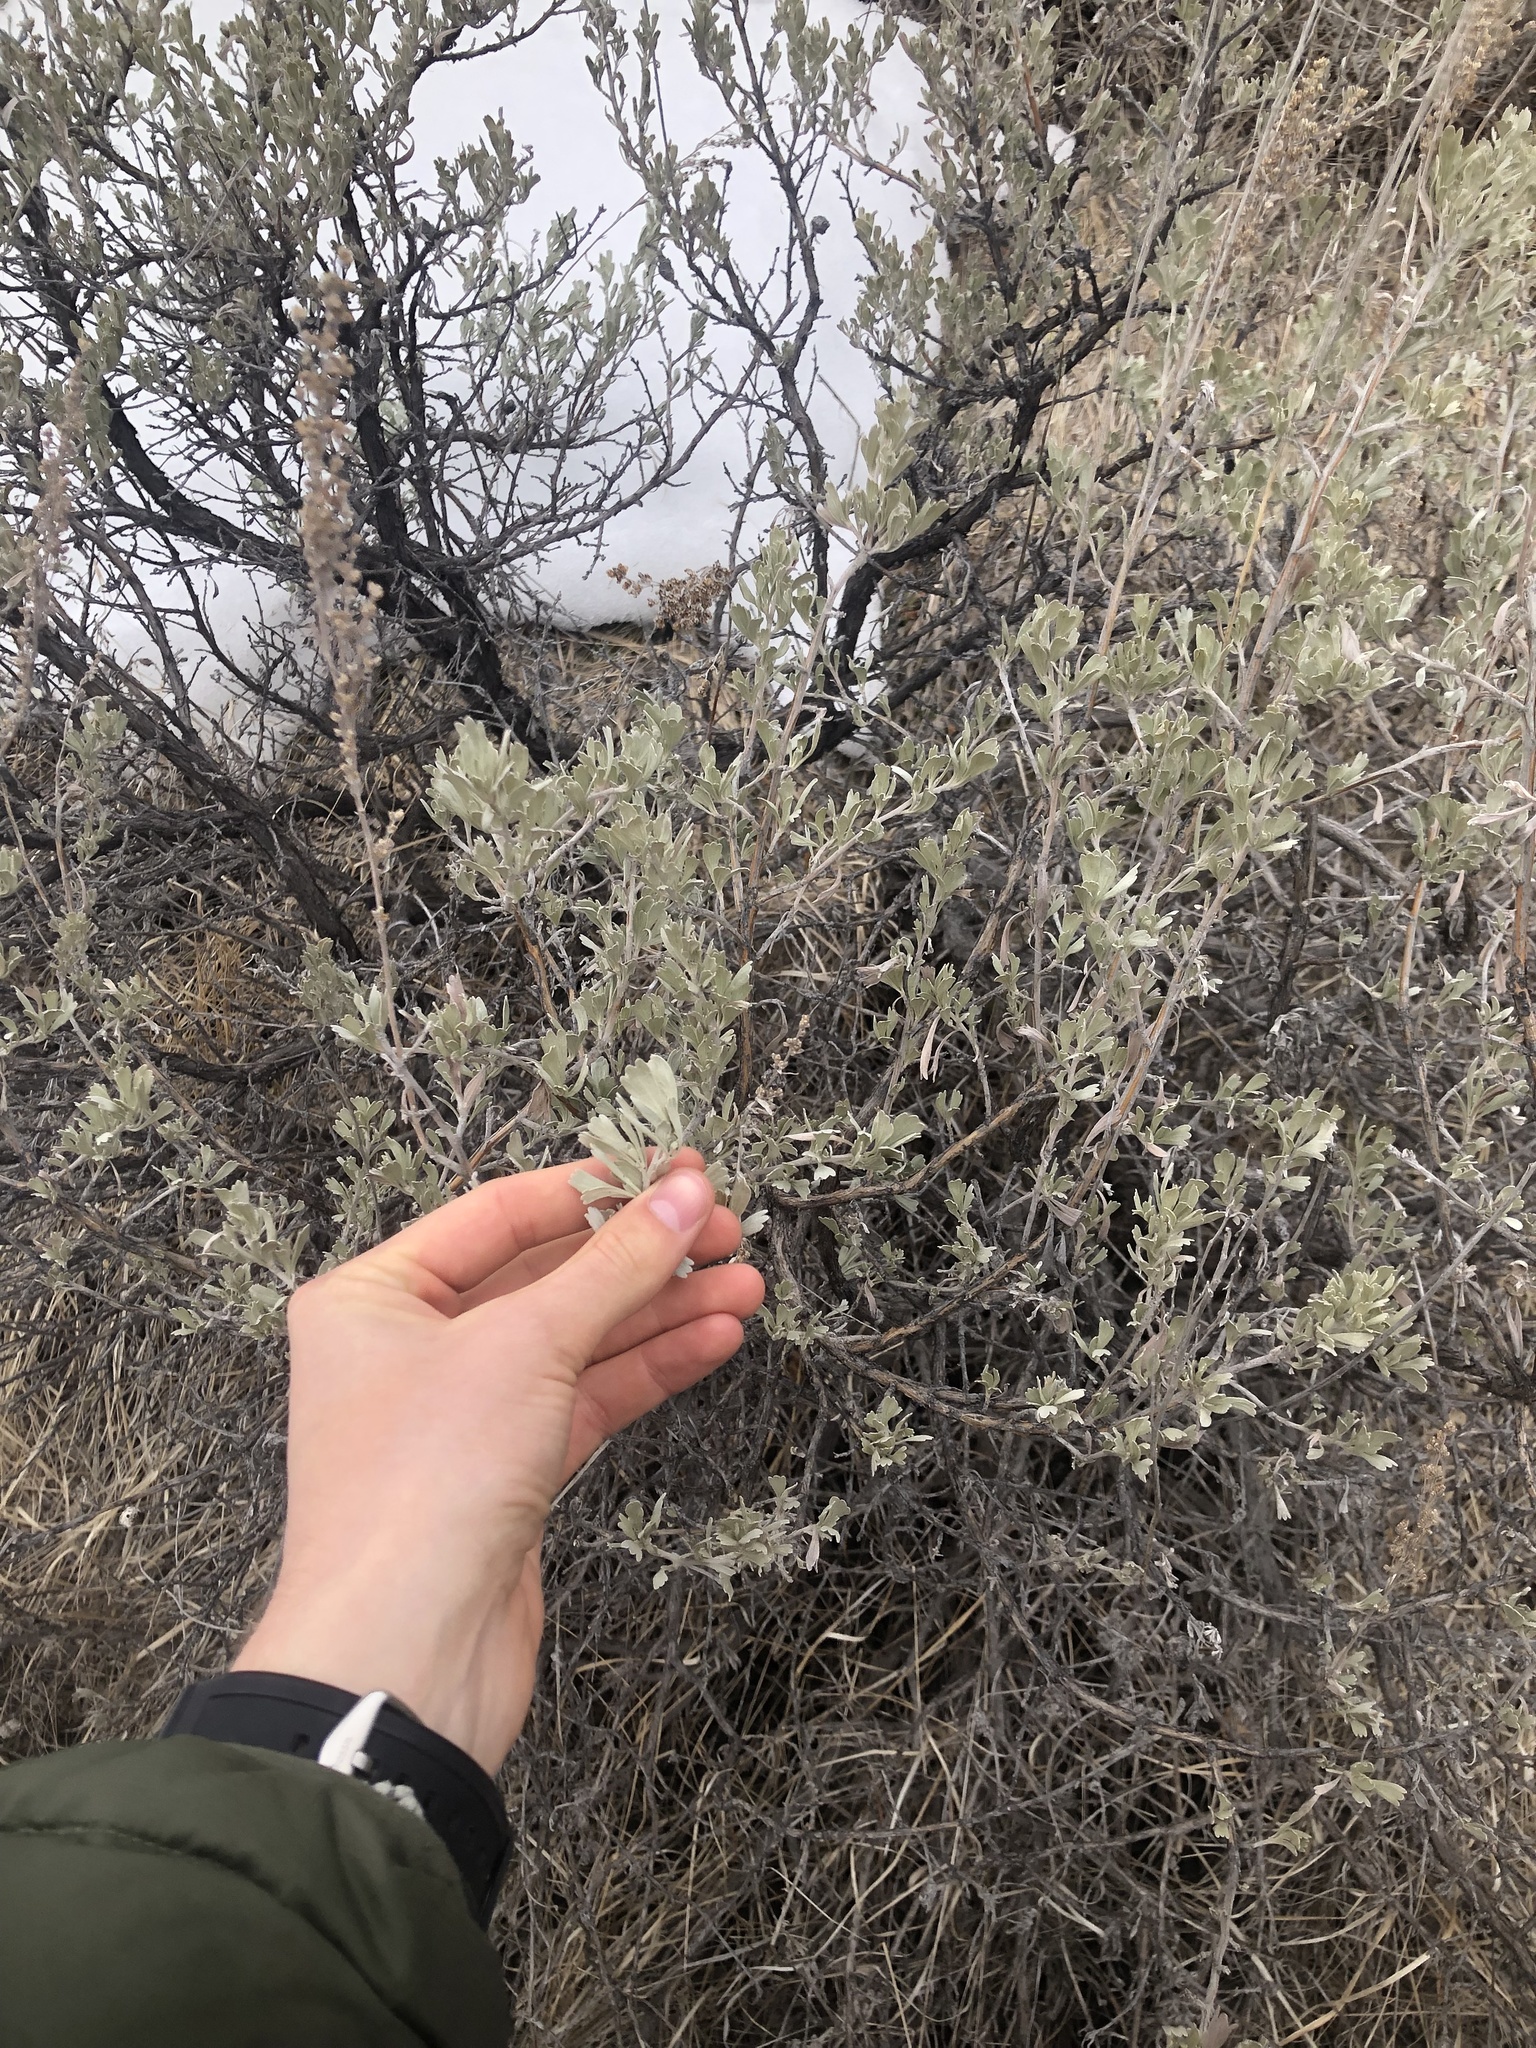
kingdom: Plantae
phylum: Tracheophyta
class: Magnoliopsida
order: Asterales
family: Asteraceae
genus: Artemisia
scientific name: Artemisia tridentata
